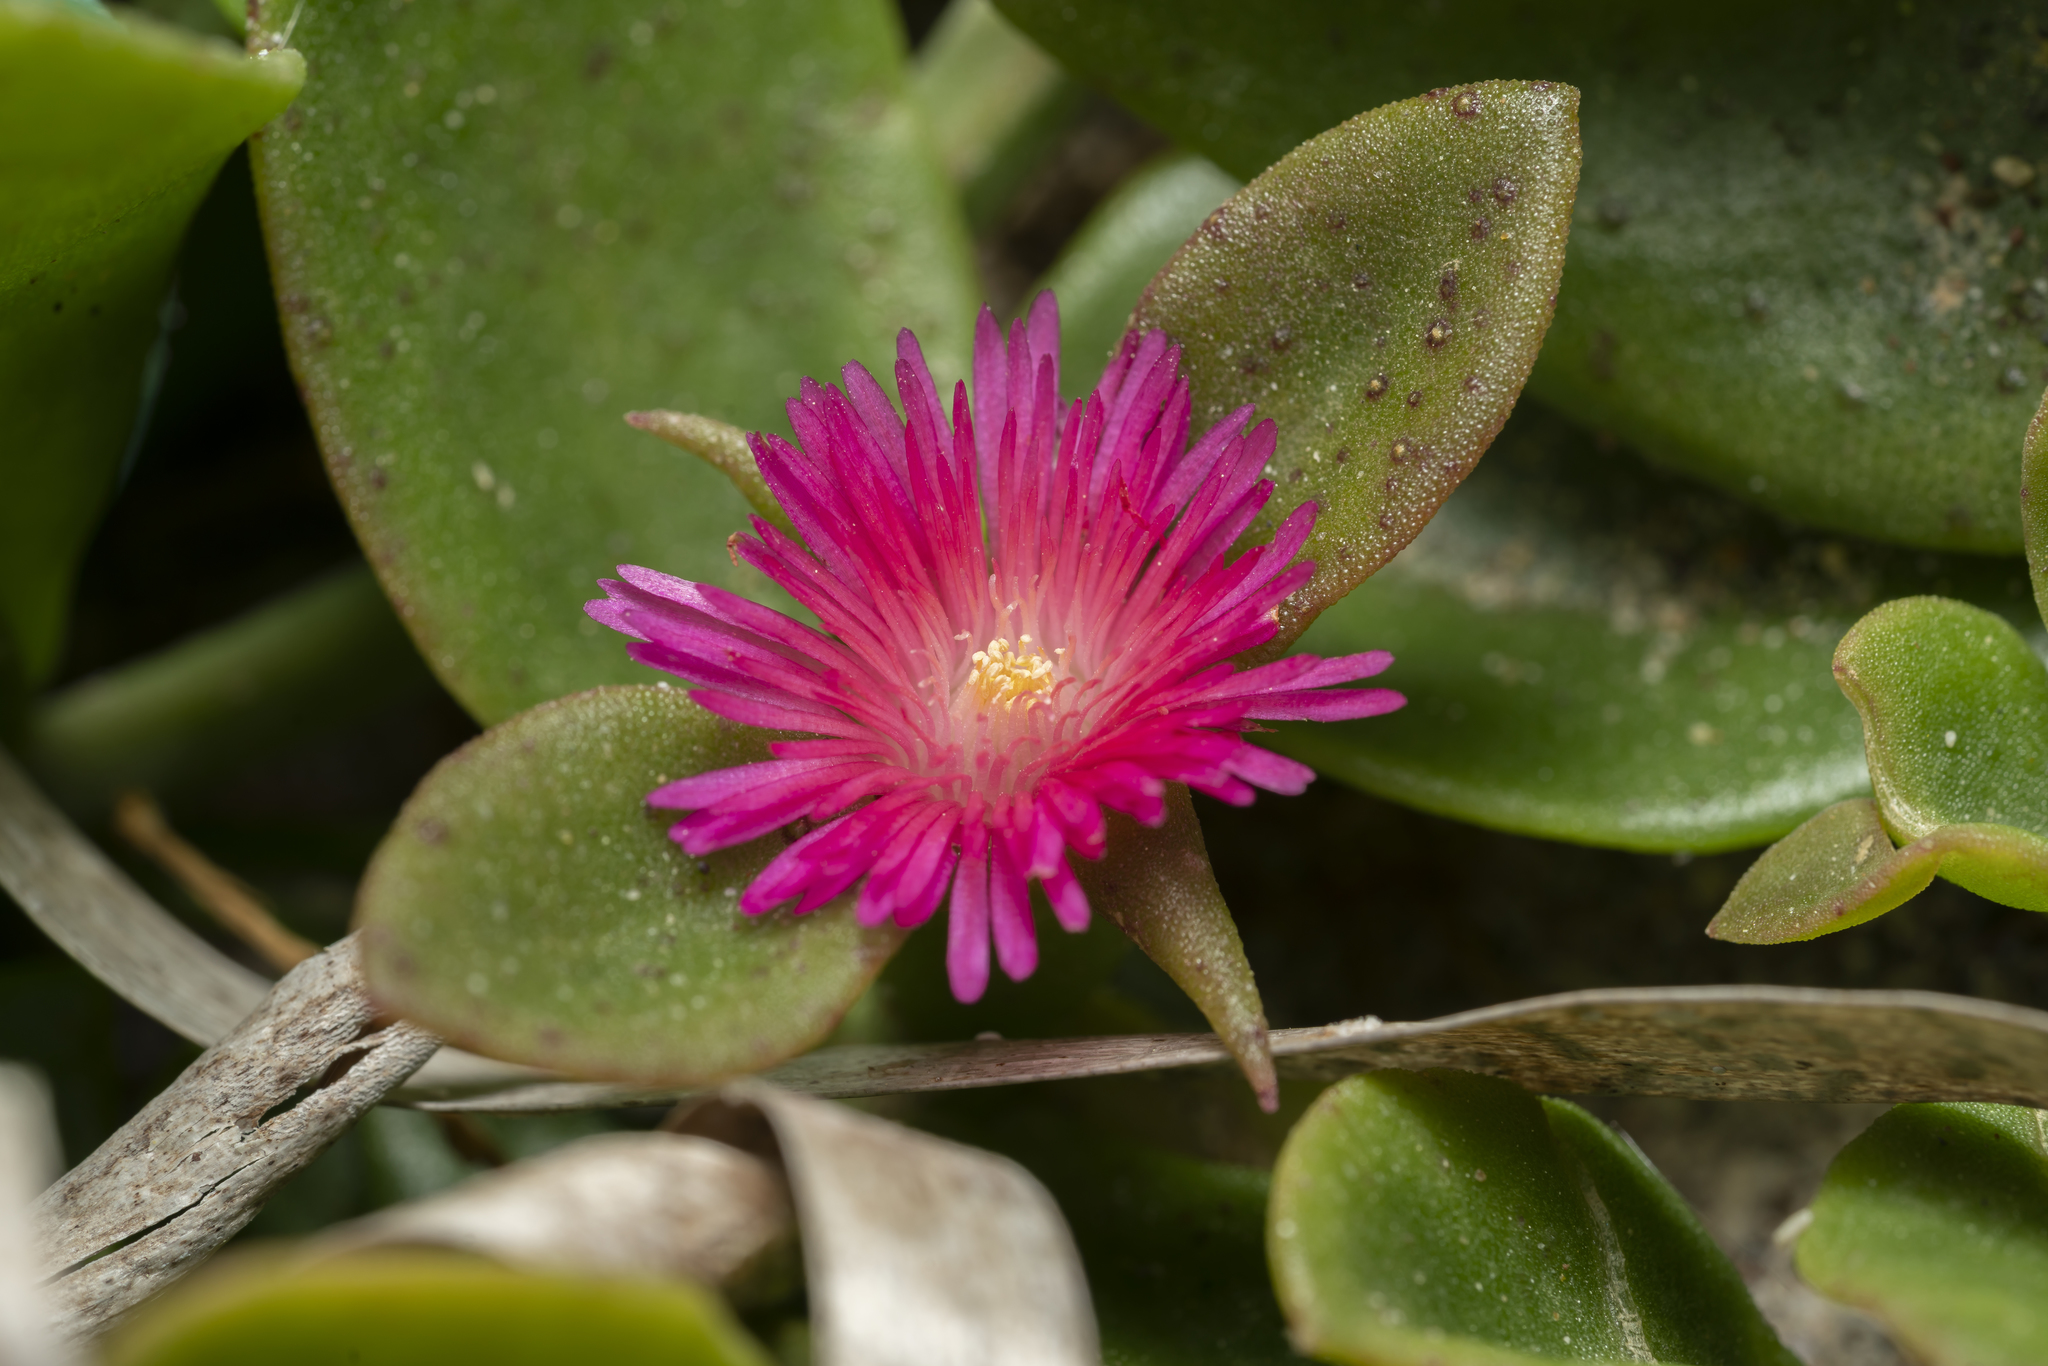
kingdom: Plantae
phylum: Tracheophyta
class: Magnoliopsida
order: Caryophyllales
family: Aizoaceae
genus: Mesembryanthemum
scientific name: Mesembryanthemum cordifolium
